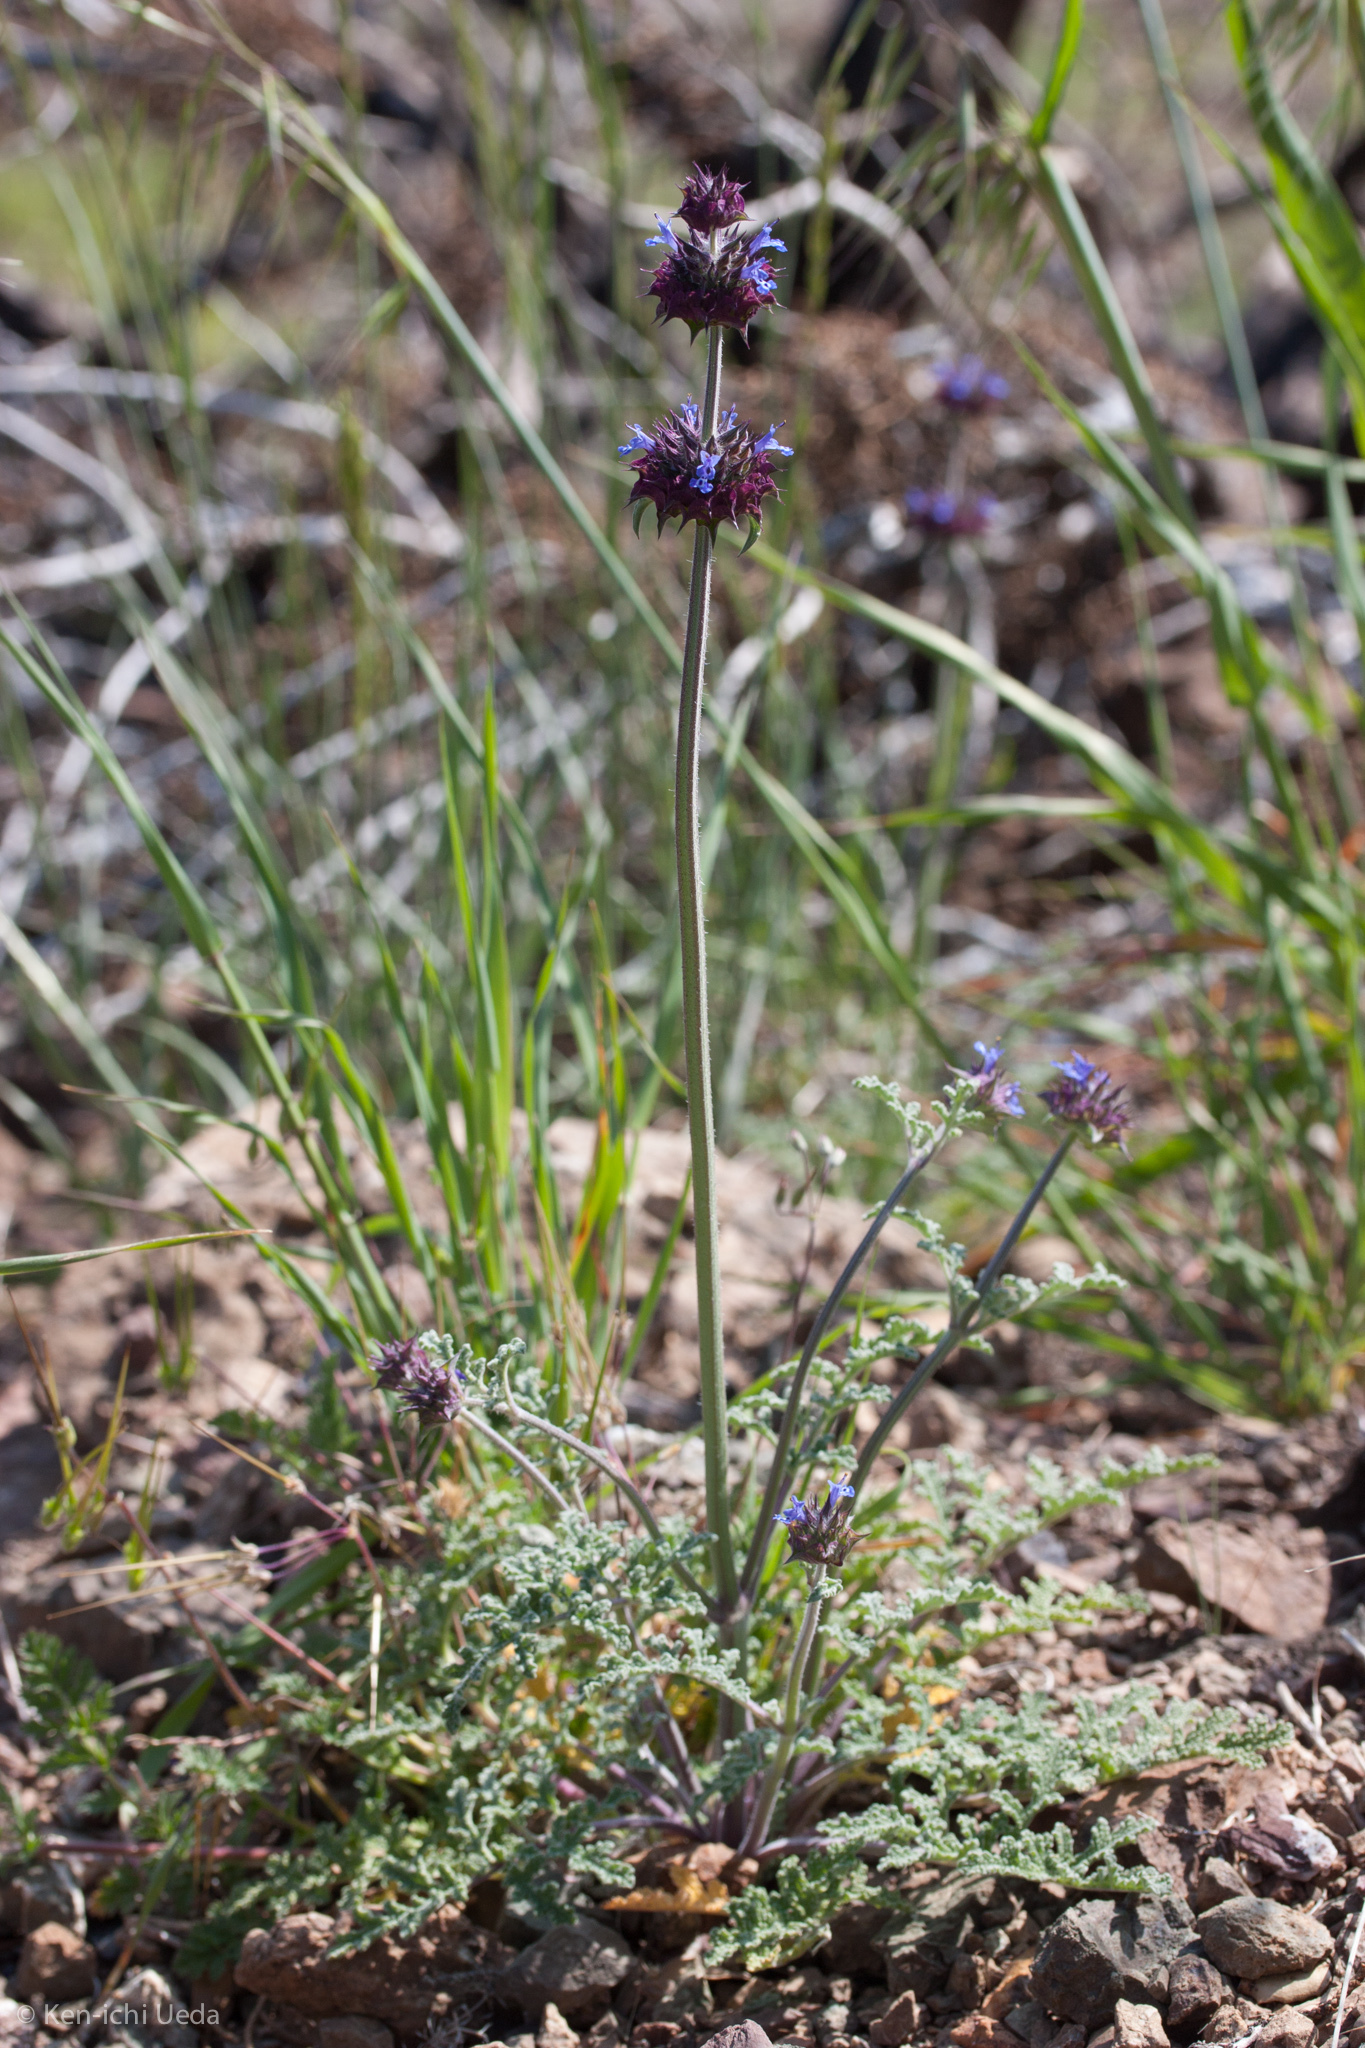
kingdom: Plantae
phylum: Tracheophyta
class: Magnoliopsida
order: Lamiales
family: Lamiaceae
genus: Salvia
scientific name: Salvia columbariae
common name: Chia
